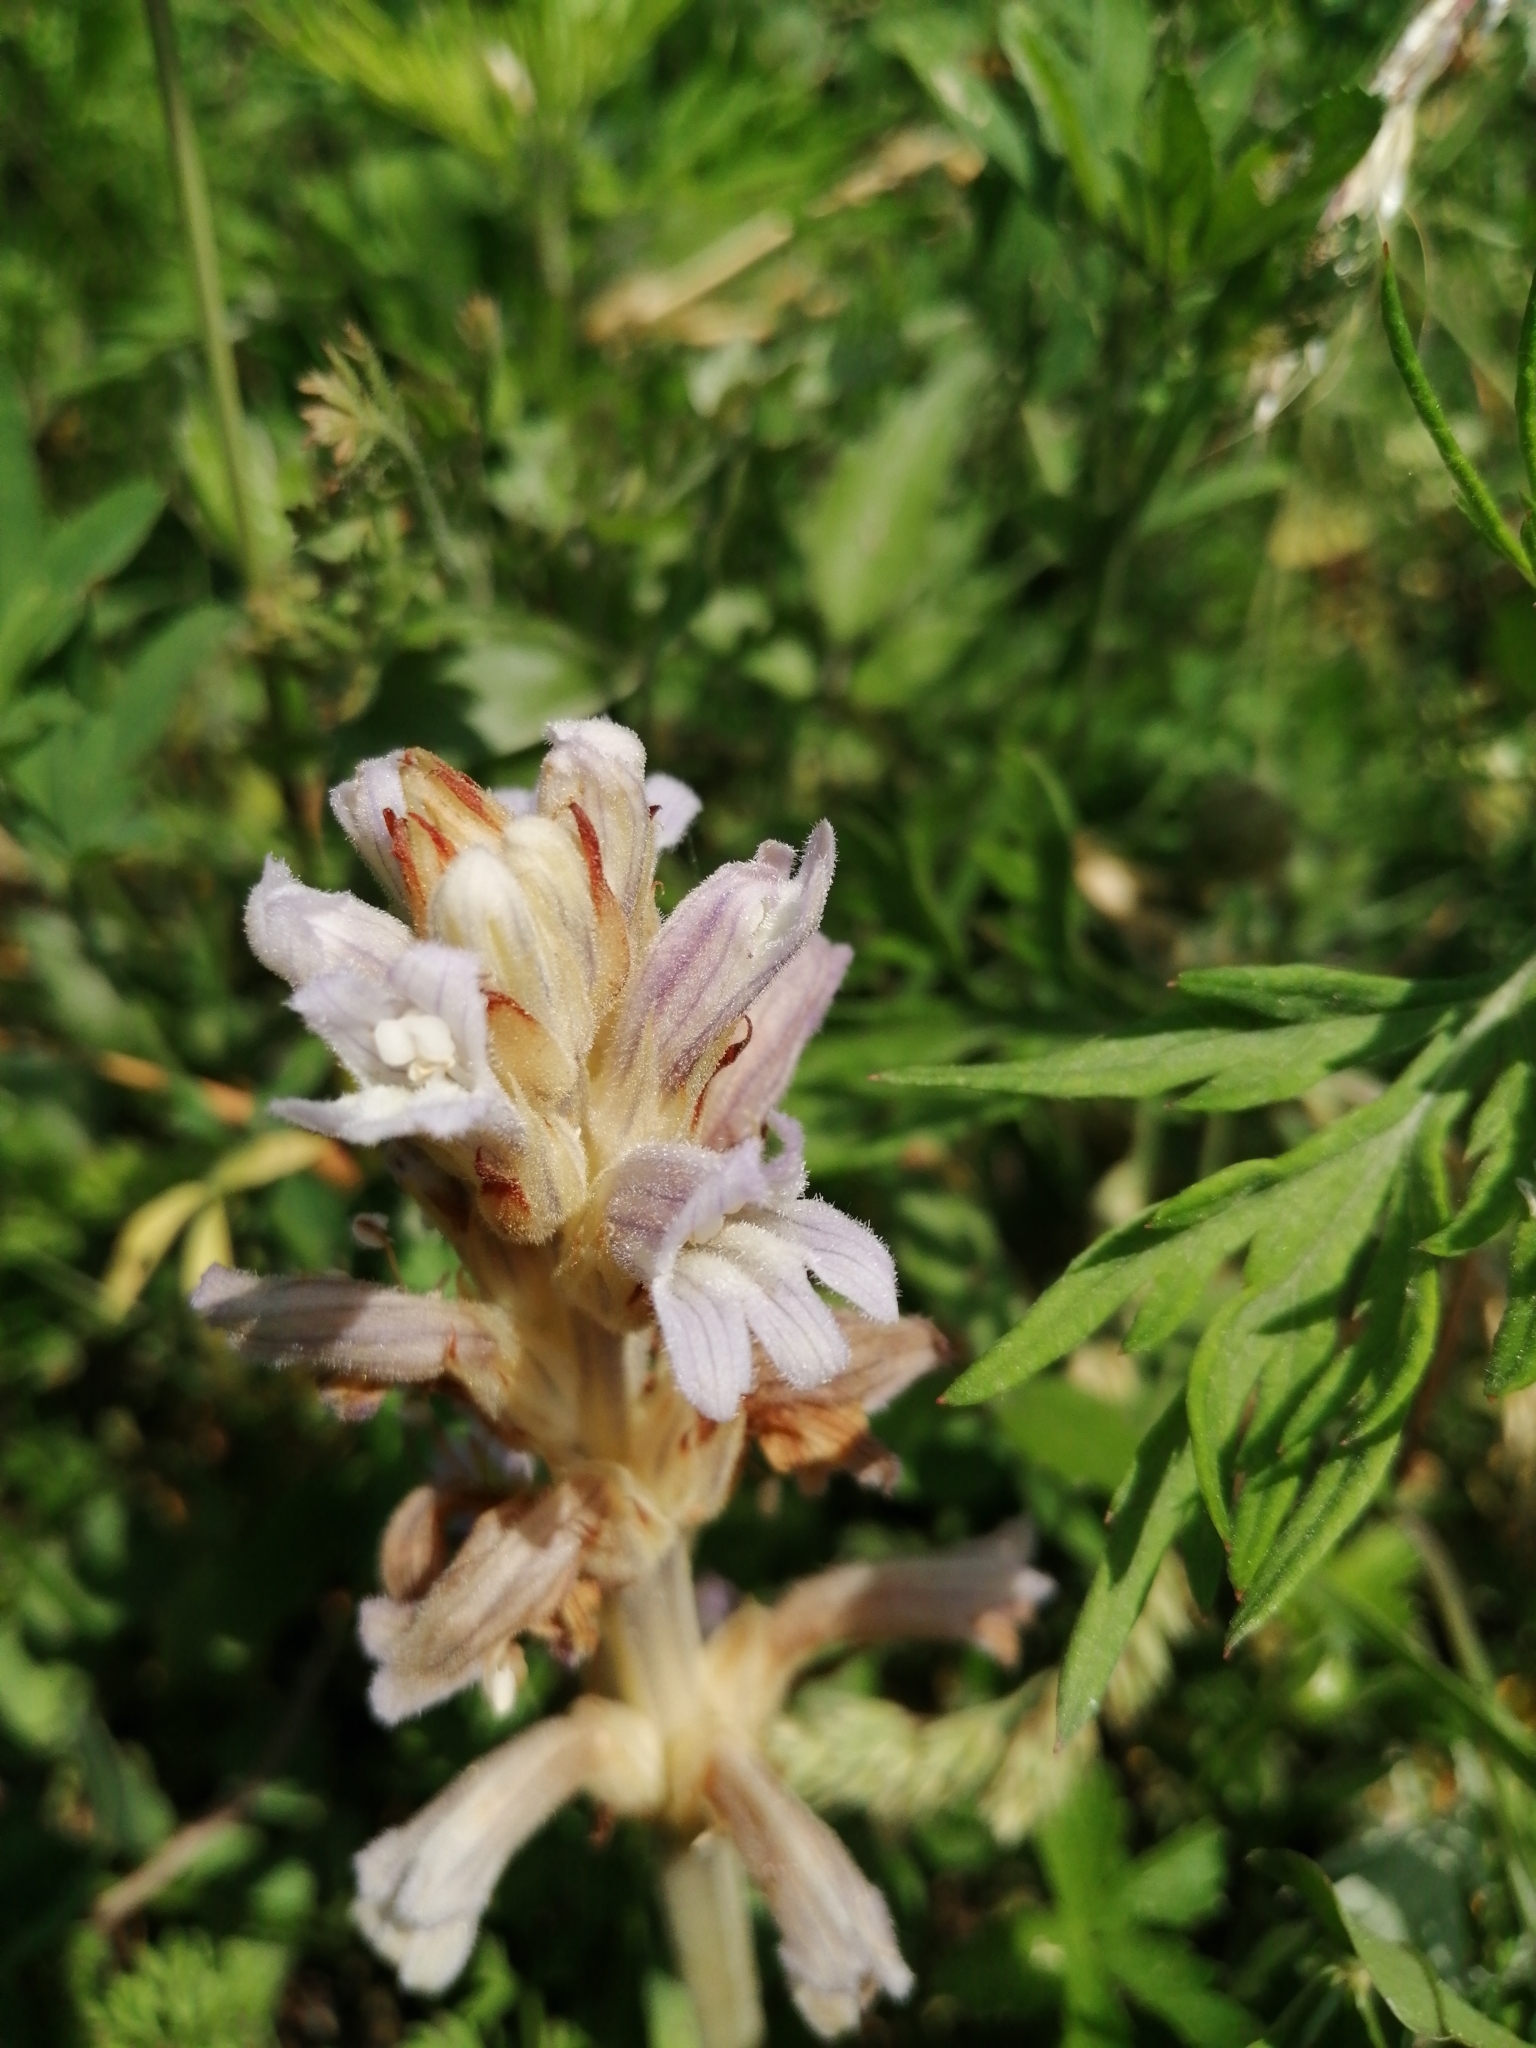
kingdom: Plantae
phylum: Tracheophyta
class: Magnoliopsida
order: Lamiales
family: Orobanchaceae
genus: Phelipanche
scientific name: Phelipanche purpurea
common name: Purple broomrape
